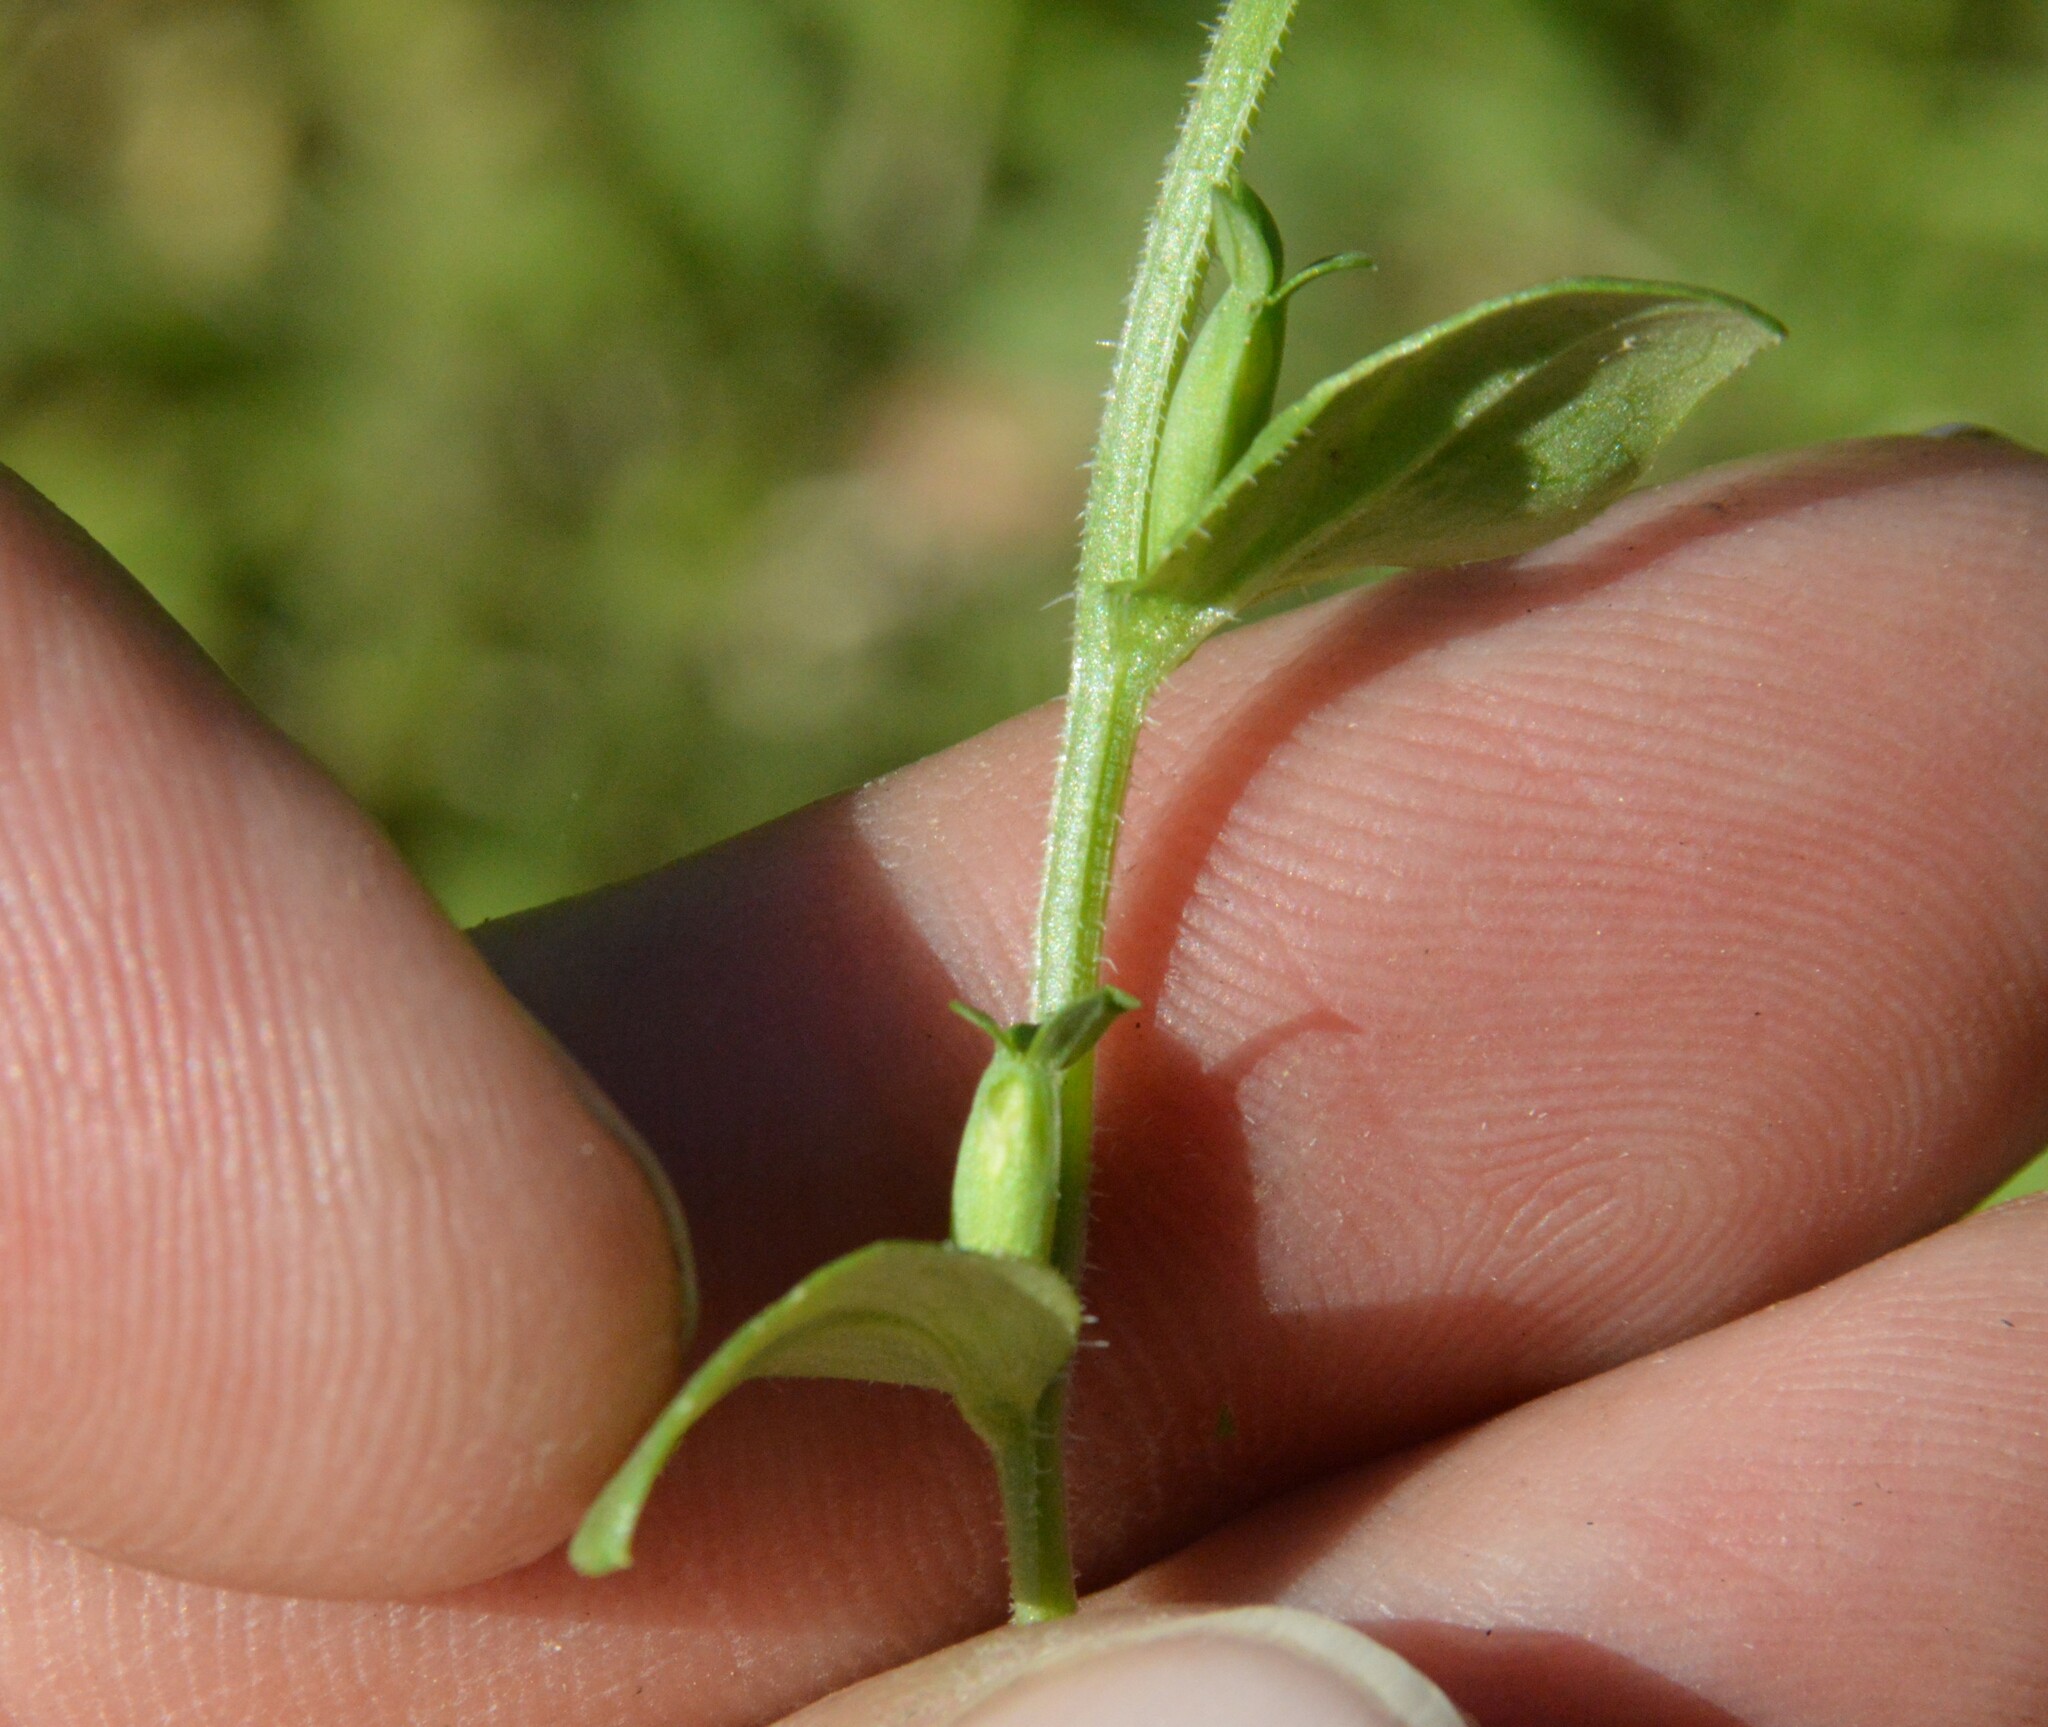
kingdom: Plantae
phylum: Tracheophyta
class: Magnoliopsida
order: Asterales
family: Campanulaceae
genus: Triodanis
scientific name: Triodanis biflora
